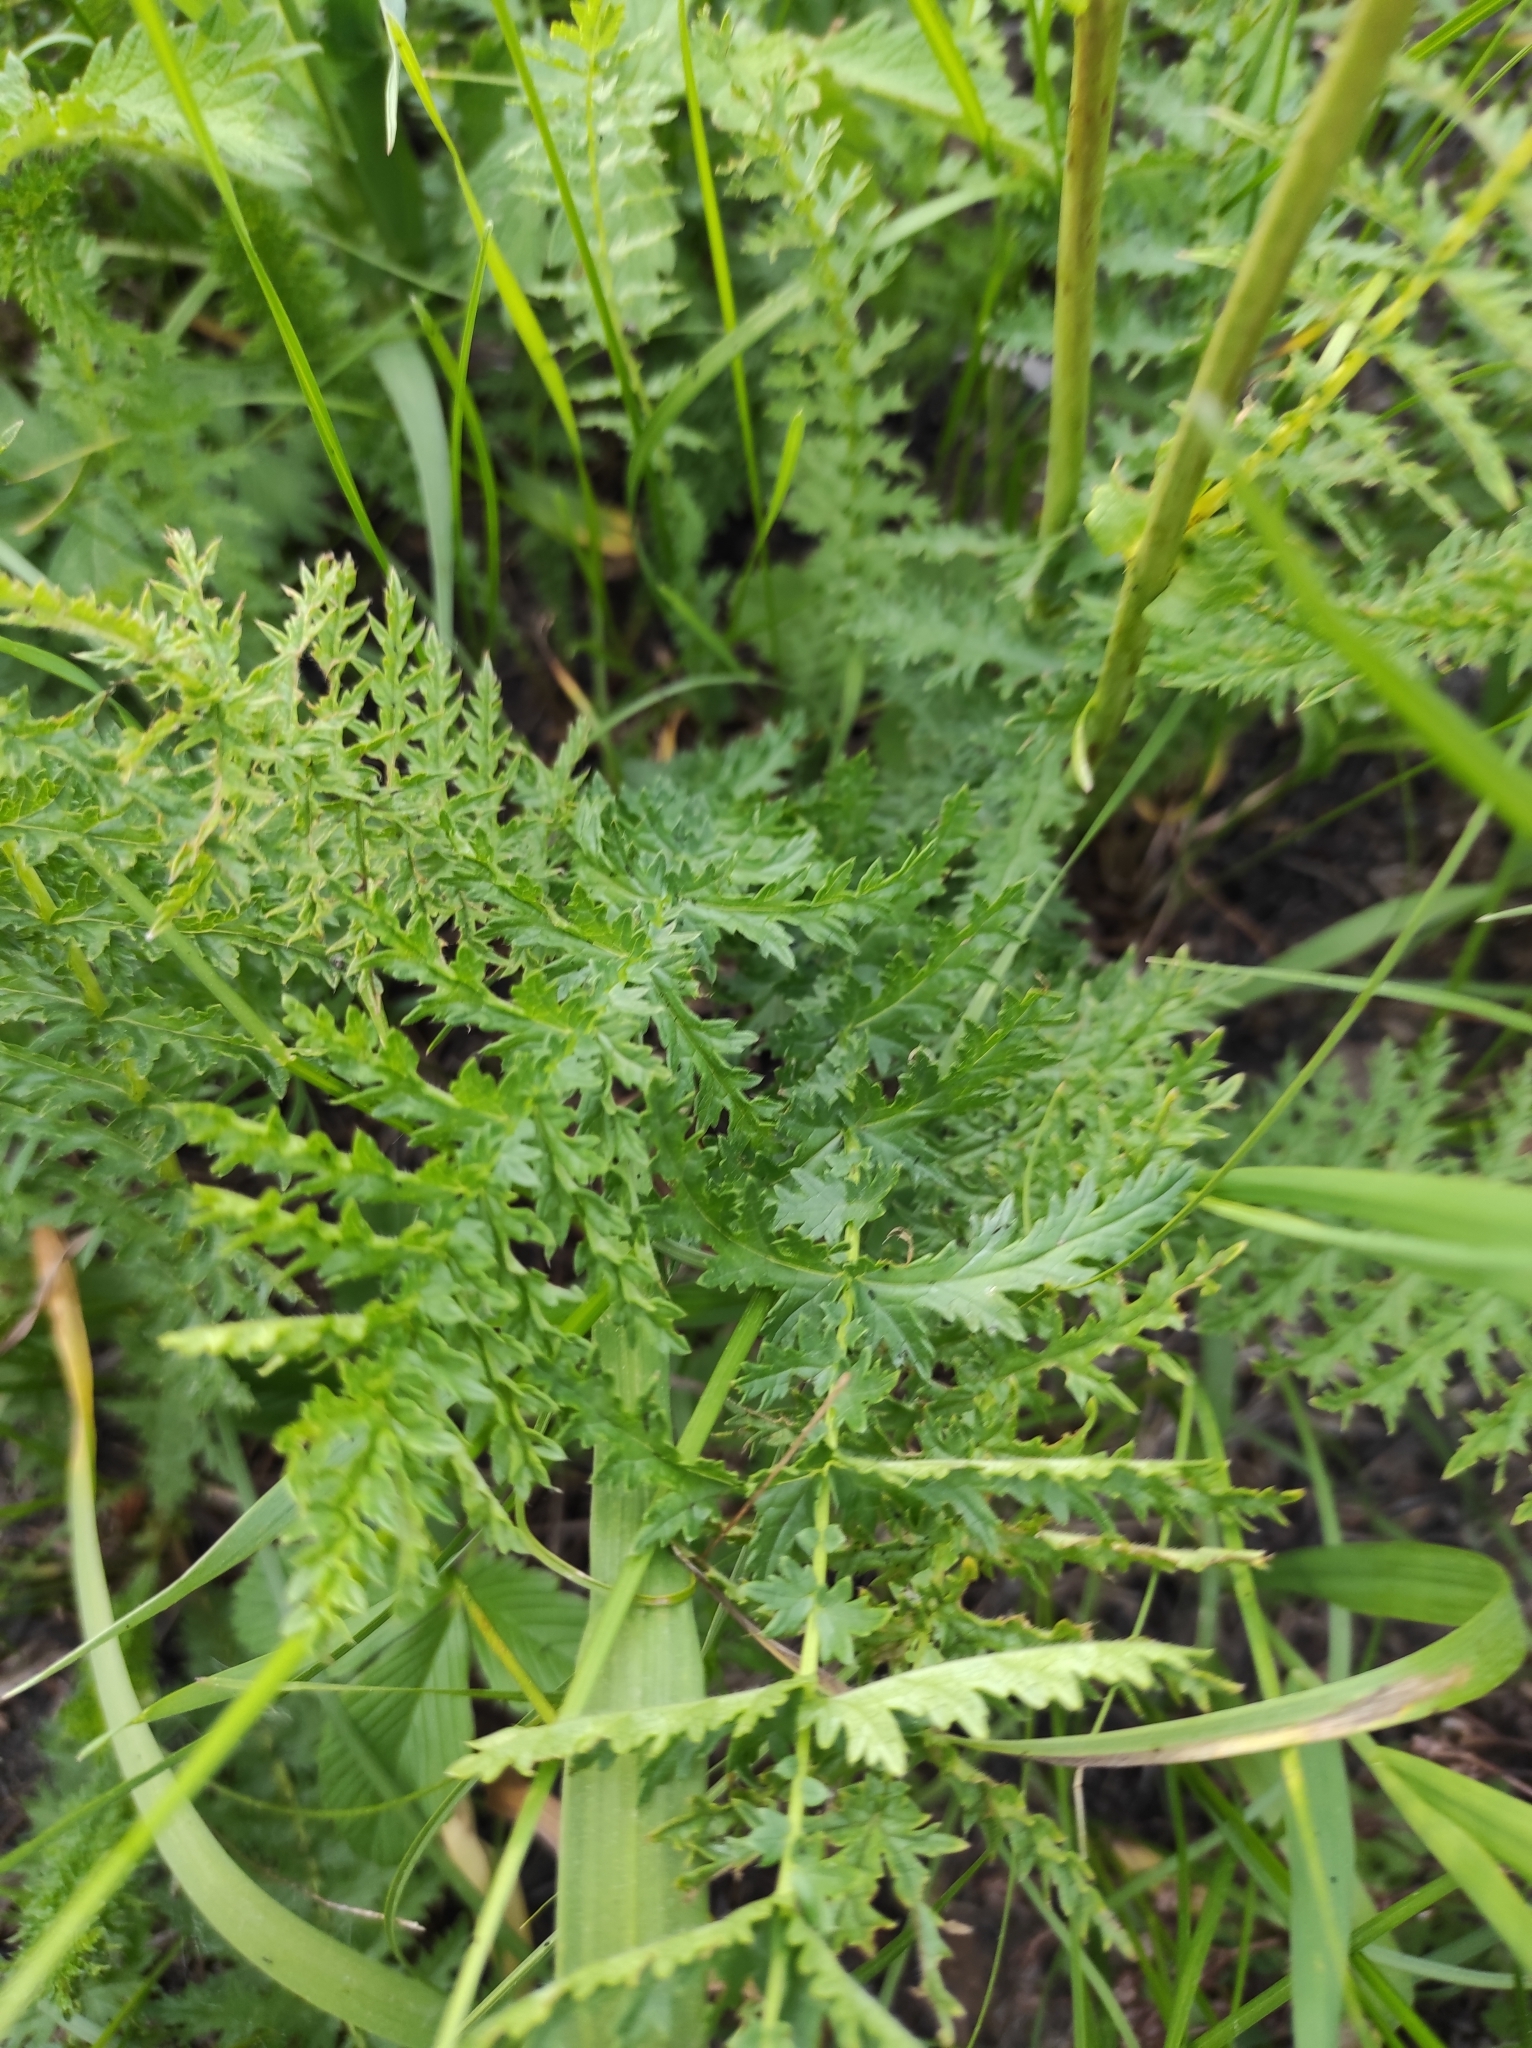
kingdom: Plantae
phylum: Tracheophyta
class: Magnoliopsida
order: Rosales
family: Rosaceae
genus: Filipendula
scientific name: Filipendula vulgaris
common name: Dropwort
